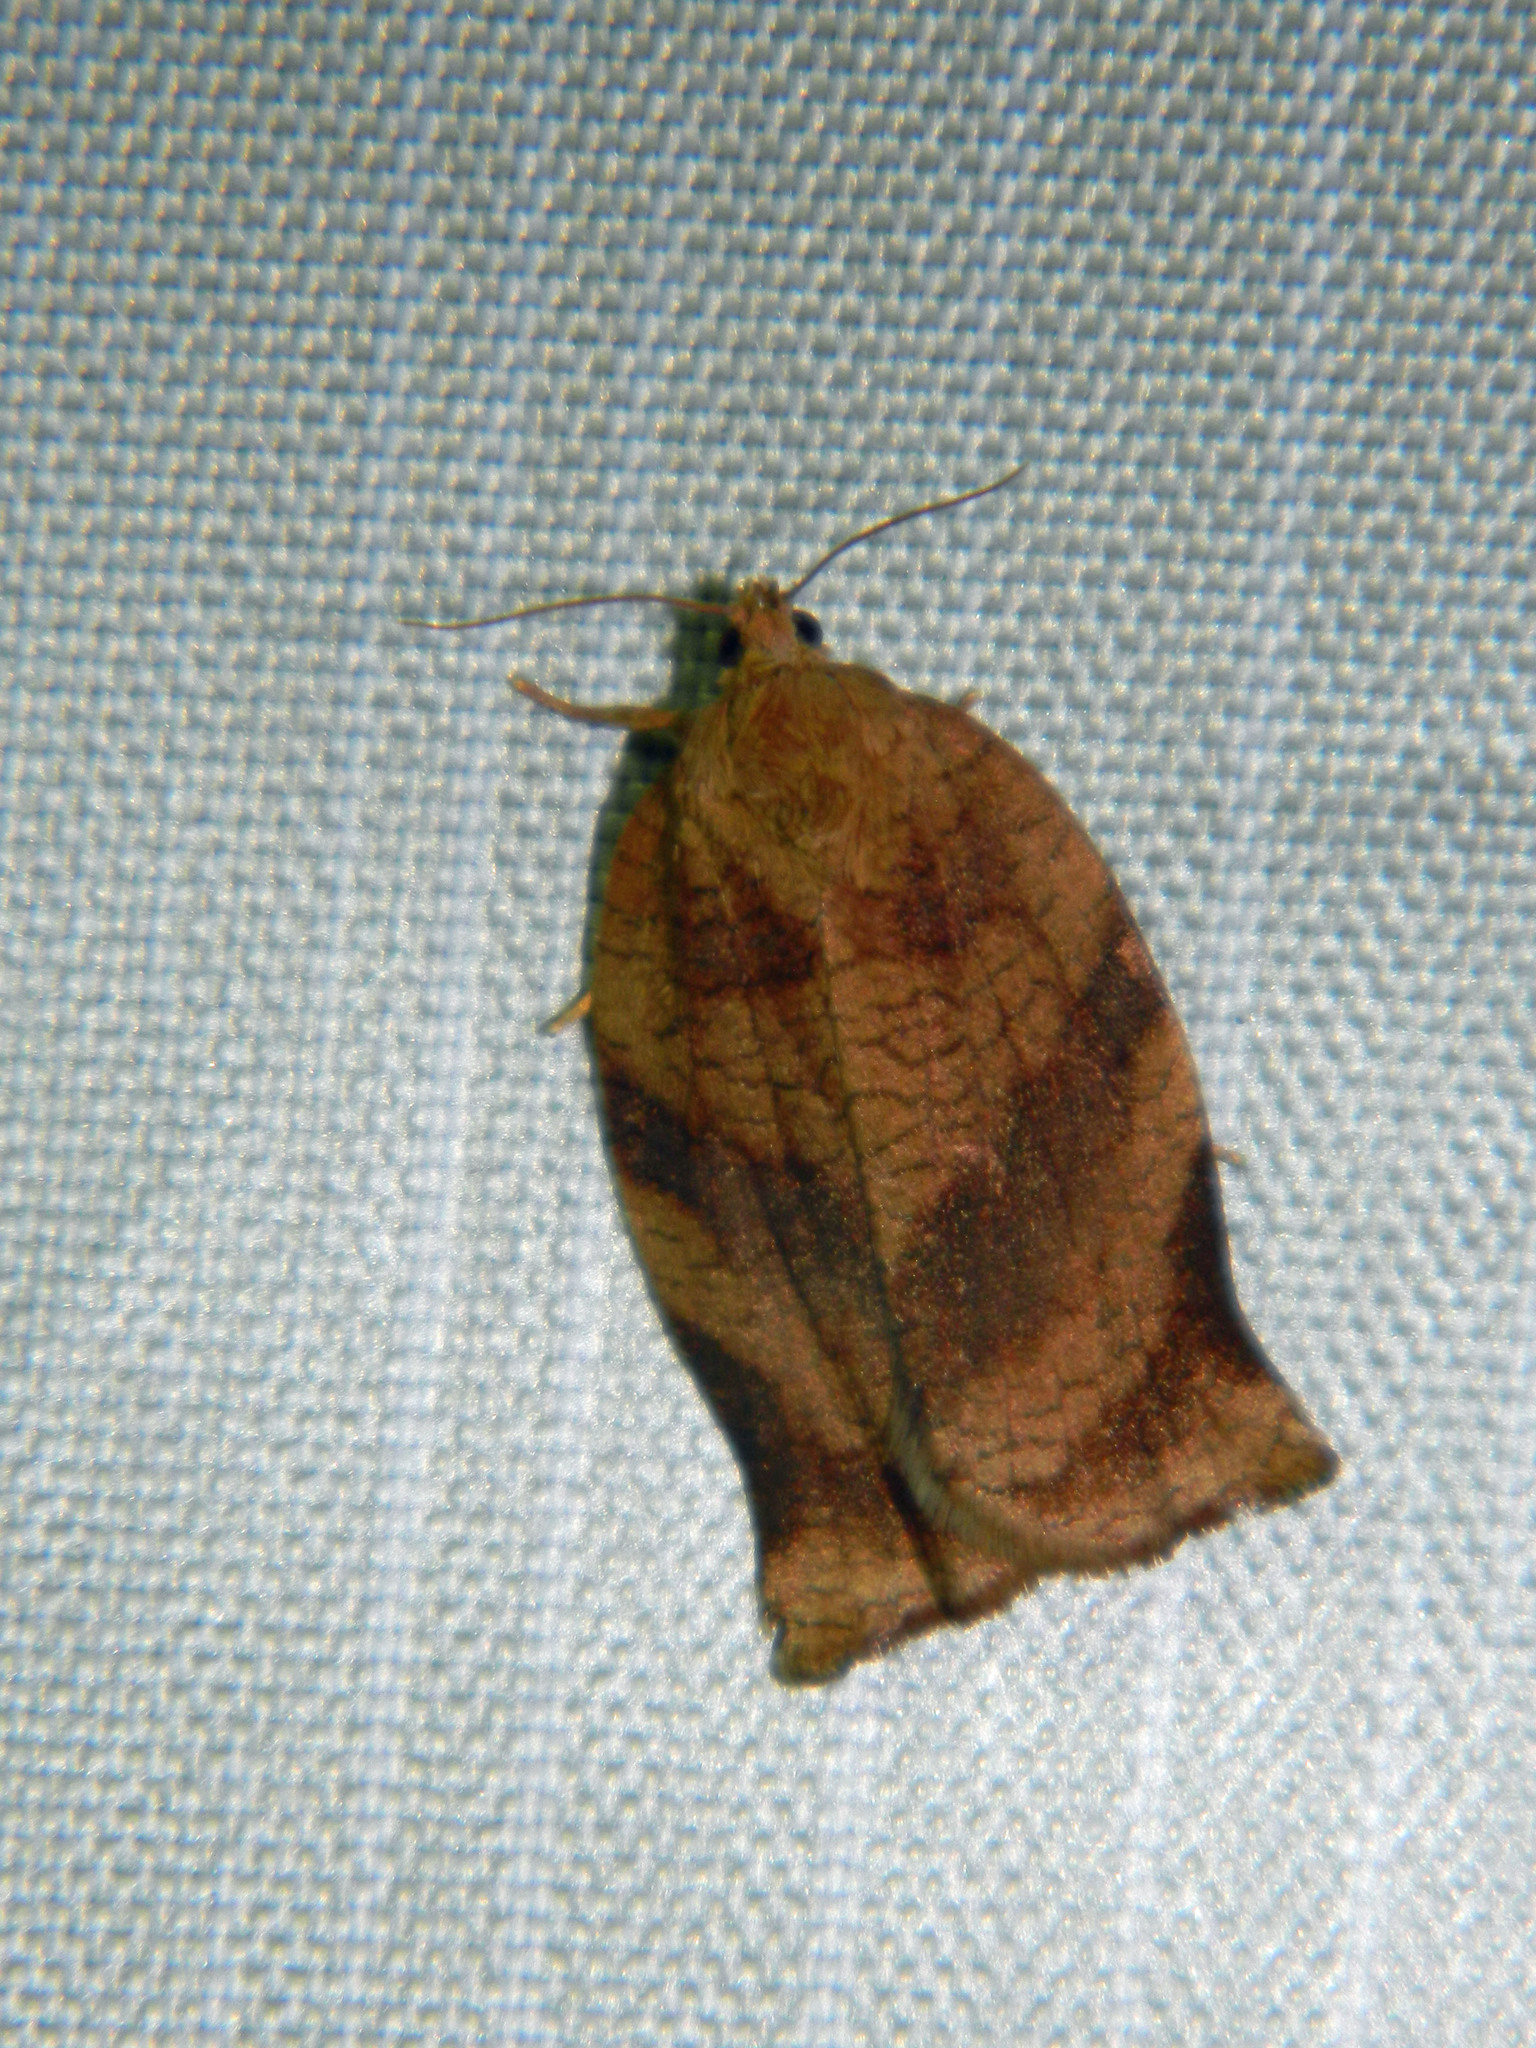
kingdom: Animalia
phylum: Arthropoda
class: Insecta
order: Lepidoptera
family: Tortricidae
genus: Choristoneura
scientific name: Choristoneura rosaceana
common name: Oblique-banded leafroller moth
